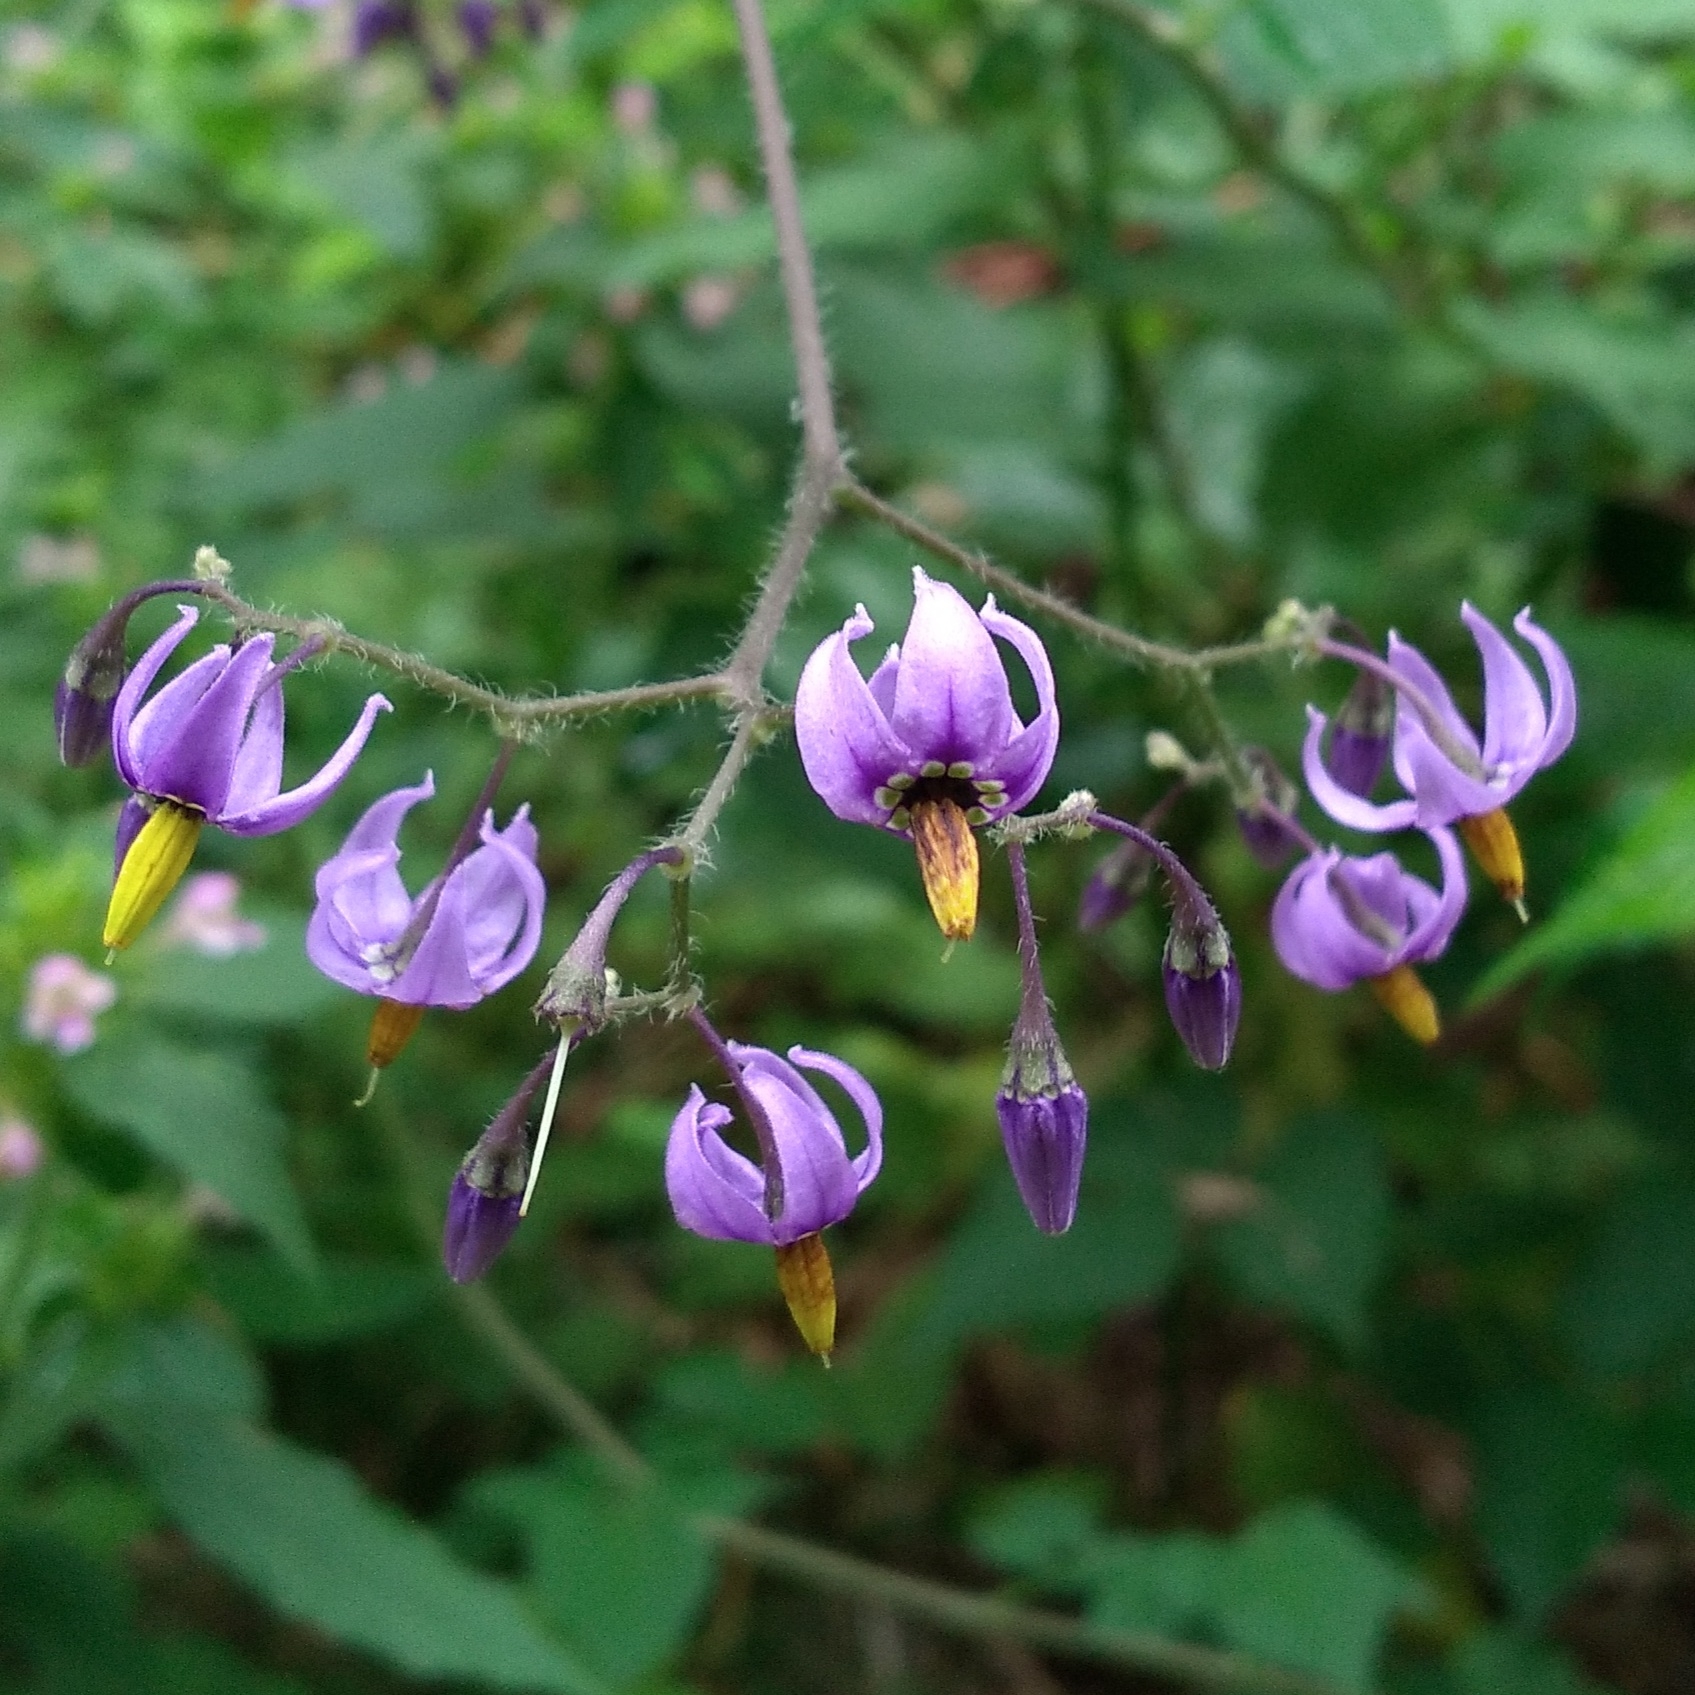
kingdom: Plantae
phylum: Tracheophyta
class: Magnoliopsida
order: Solanales
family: Solanaceae
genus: Solanum
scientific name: Solanum dulcamara
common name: Climbing nightshade
